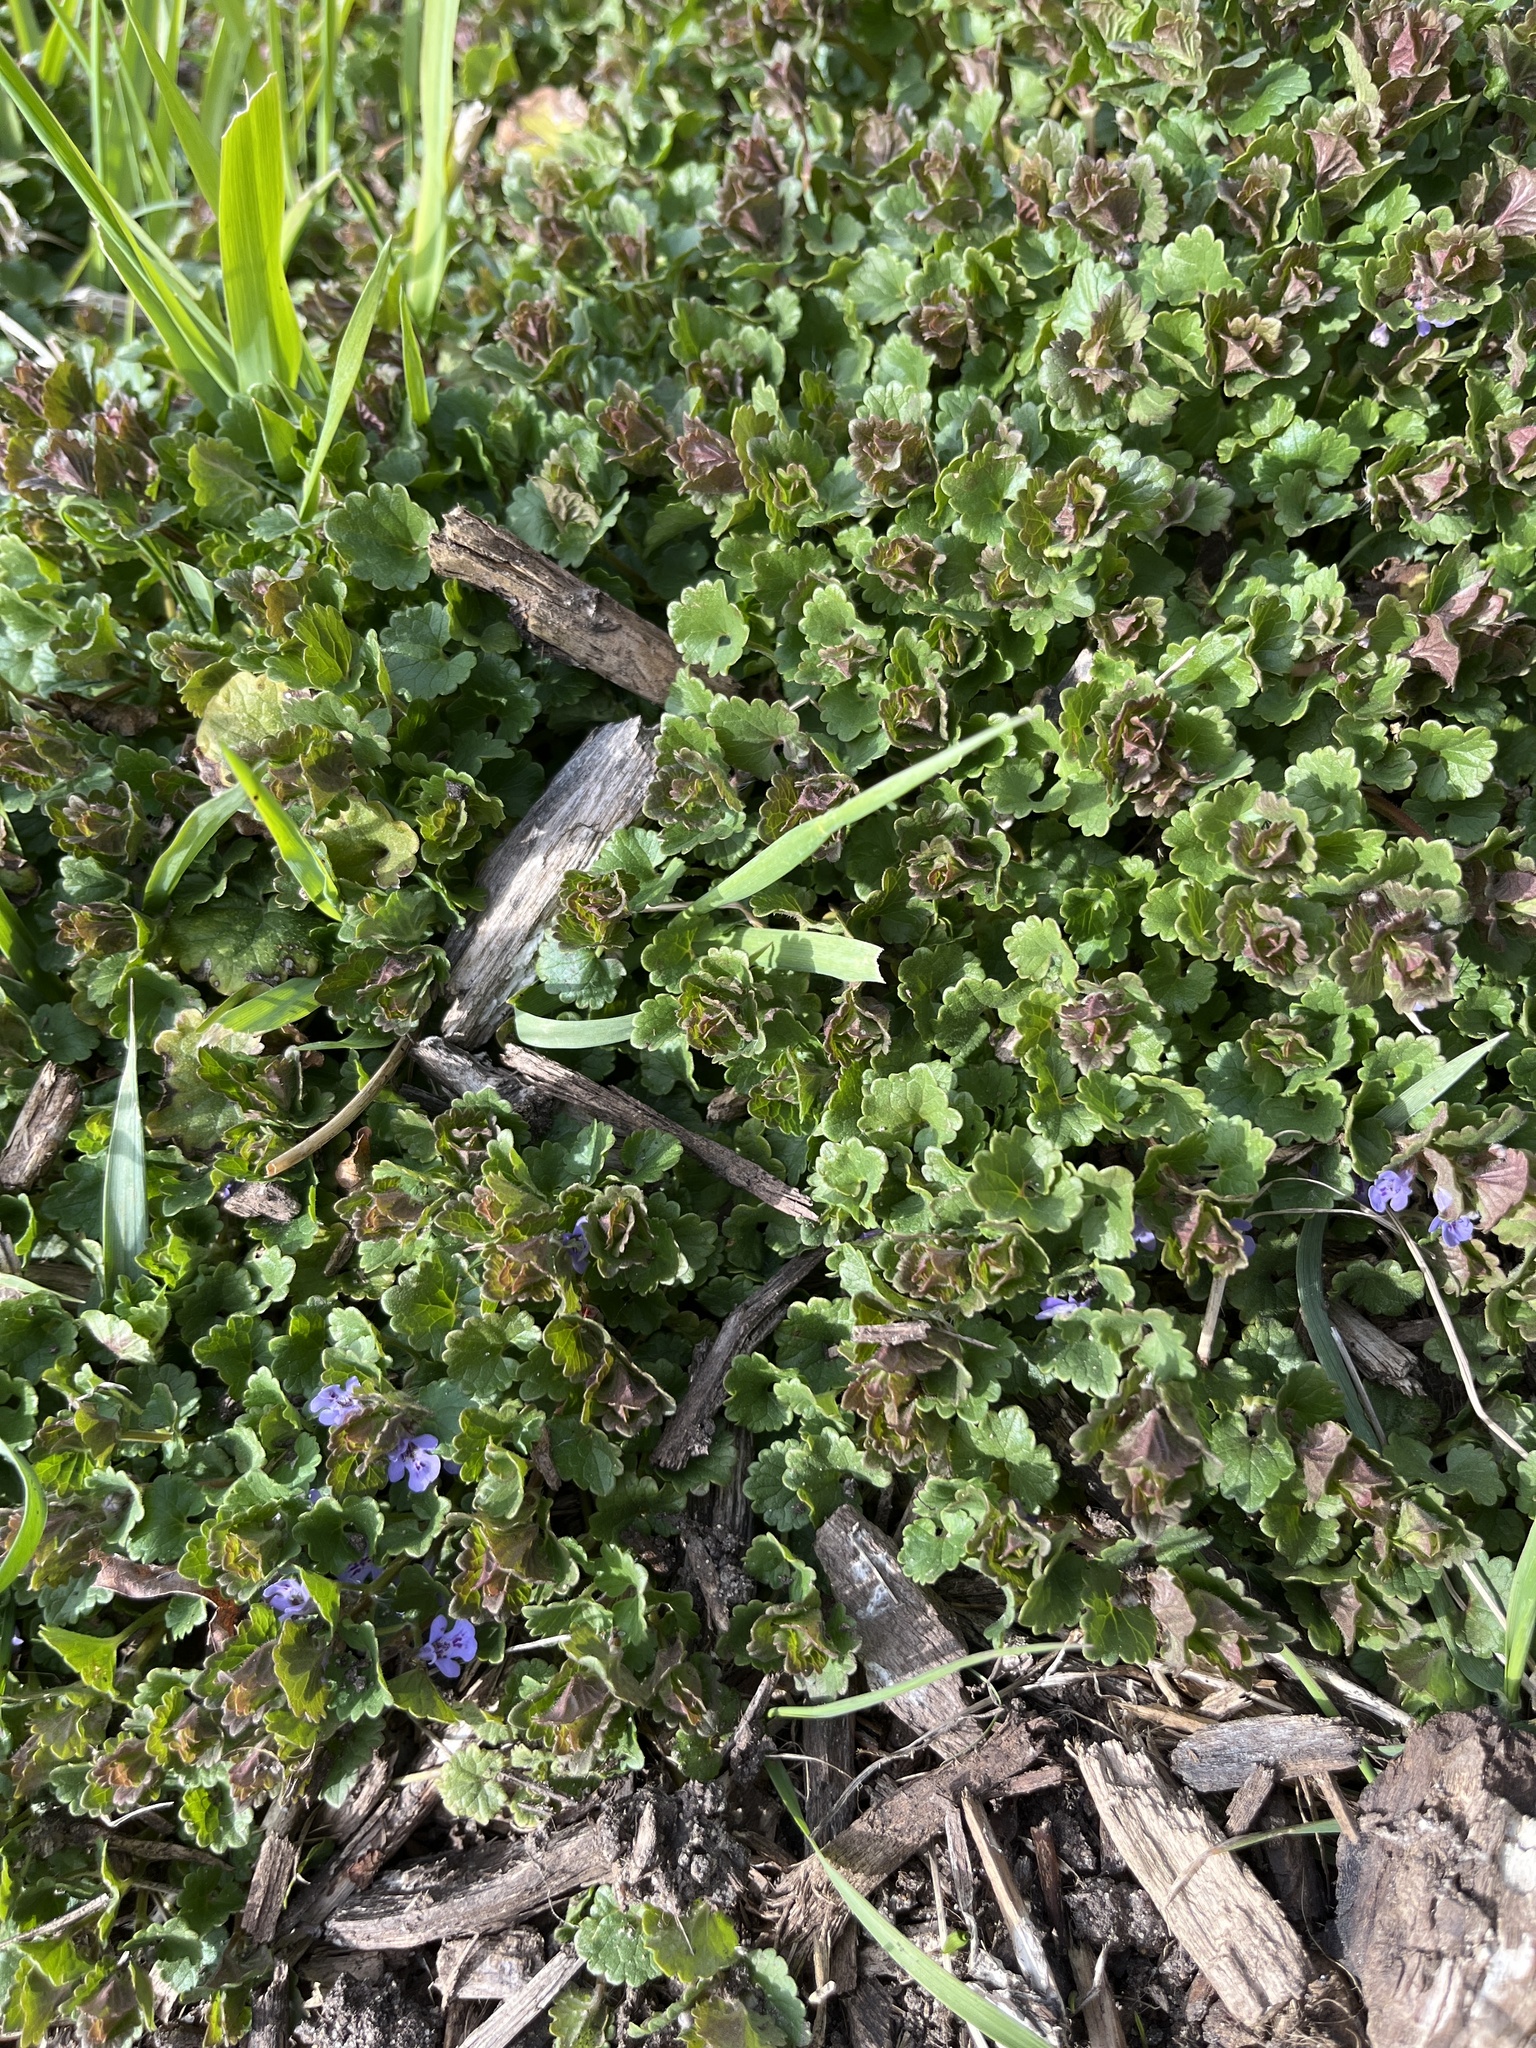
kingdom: Plantae
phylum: Tracheophyta
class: Magnoliopsida
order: Lamiales
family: Lamiaceae
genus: Glechoma
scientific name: Glechoma hederacea
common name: Ground ivy
